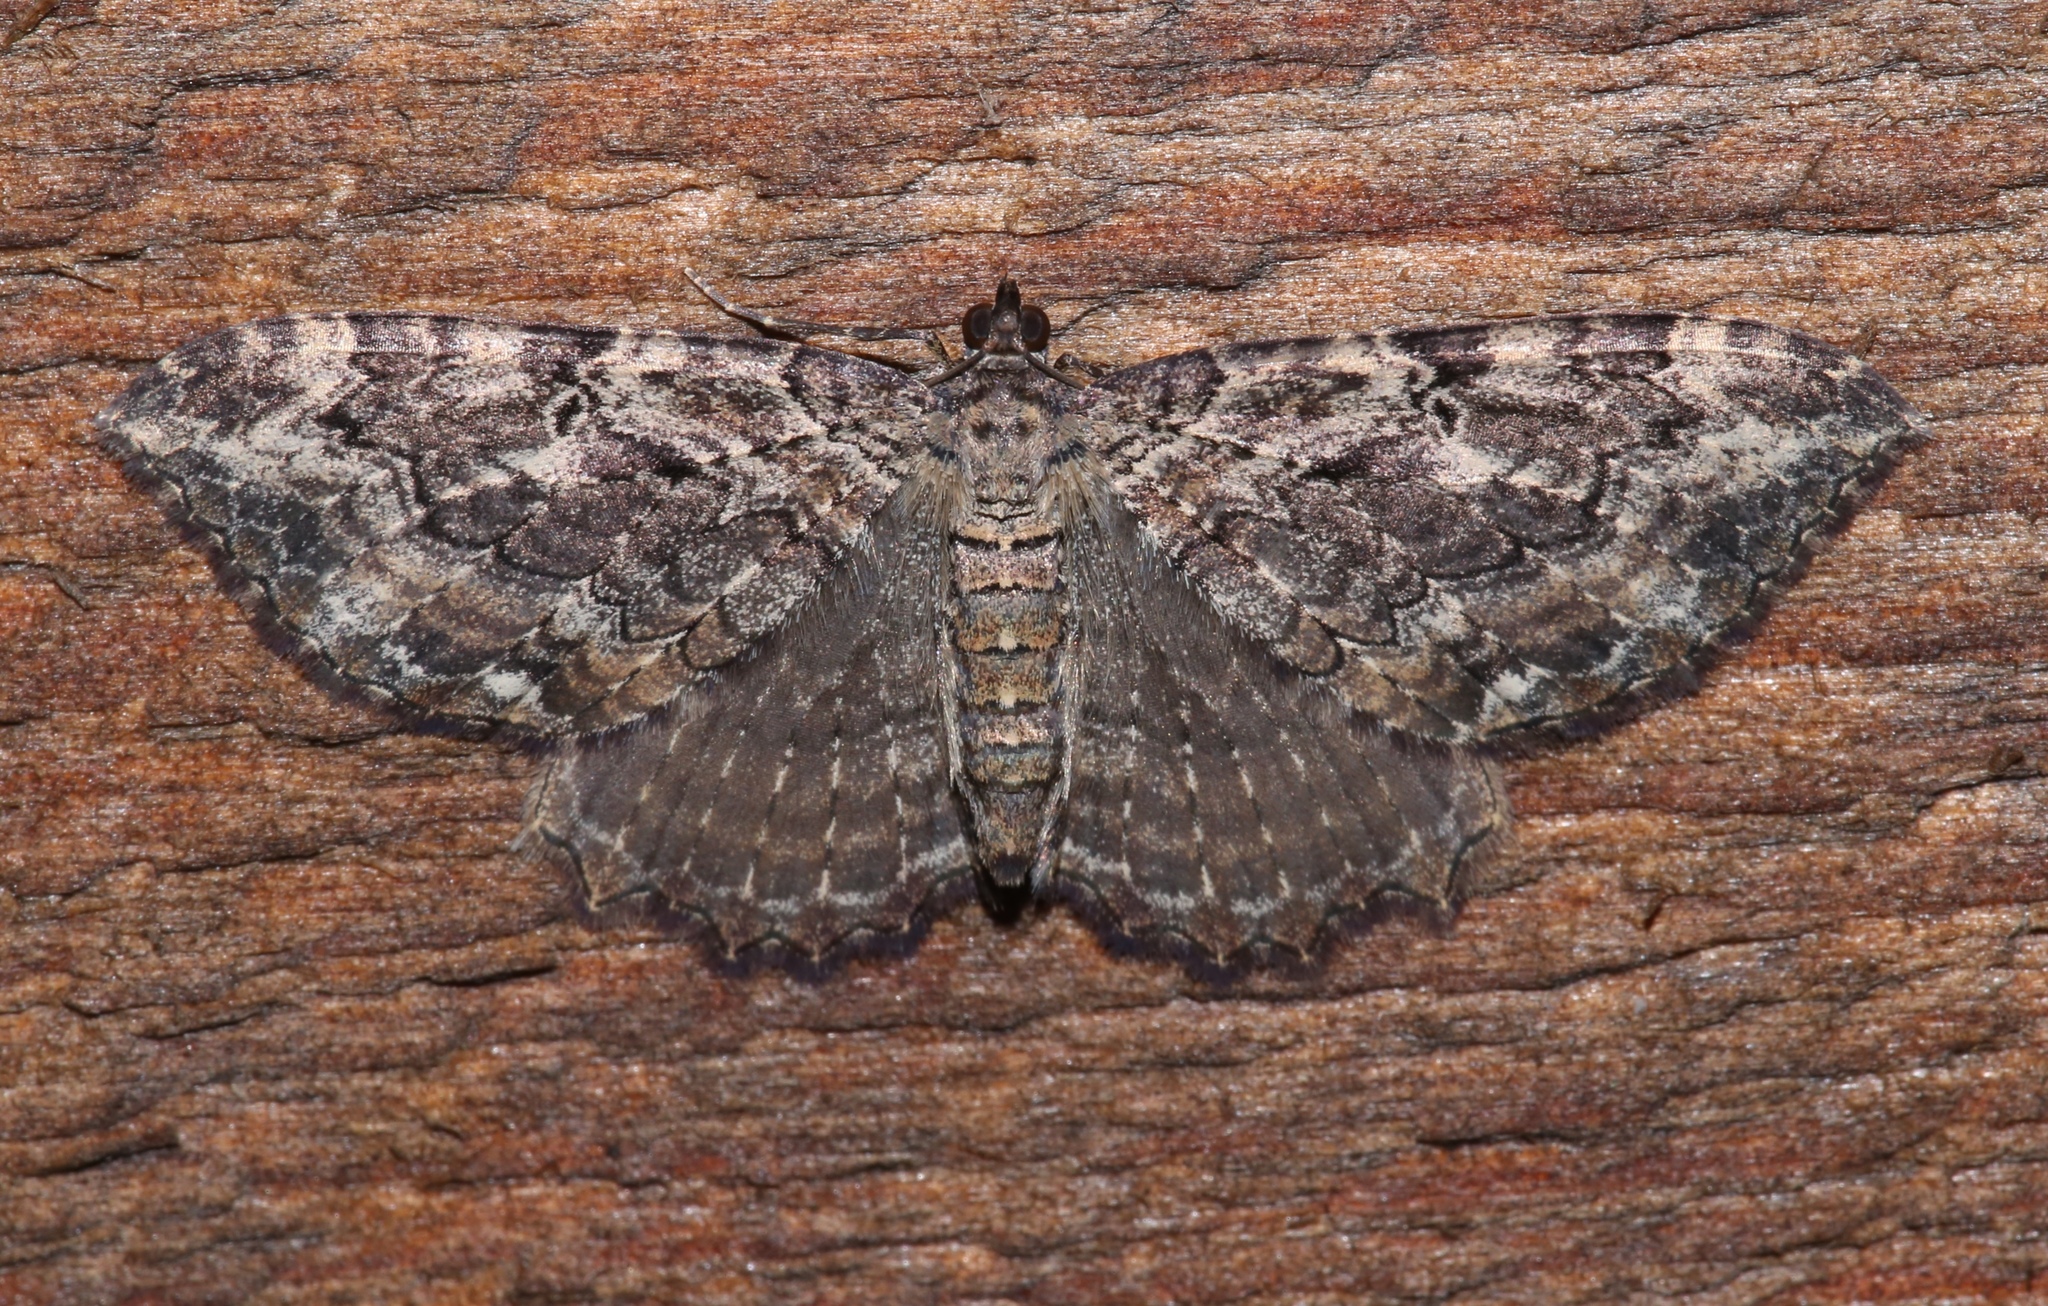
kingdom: Animalia
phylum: Arthropoda
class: Insecta
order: Lepidoptera
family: Geometridae
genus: Rheumaptera
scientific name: Rheumaptera
